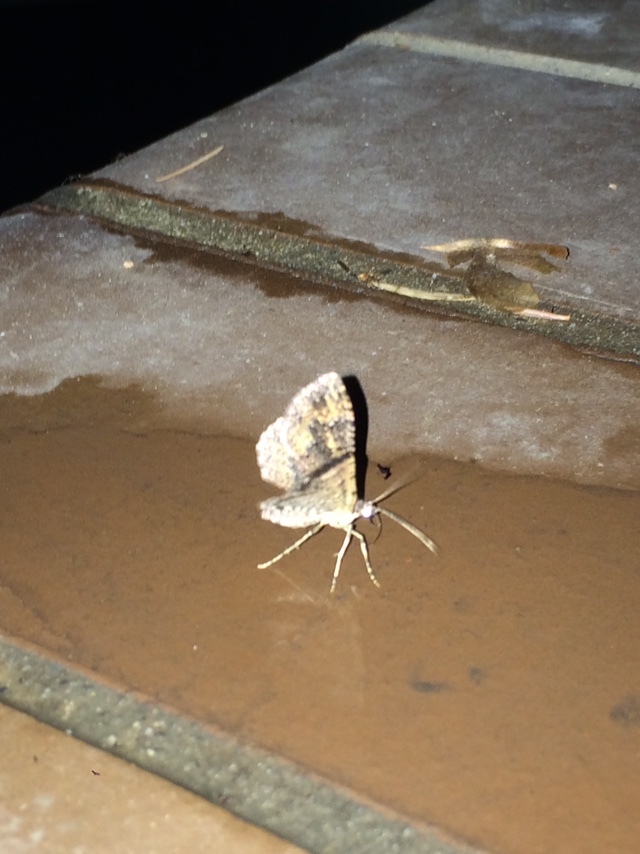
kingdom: Animalia
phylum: Arthropoda
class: Insecta
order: Lepidoptera
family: Geometridae
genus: Disclisioprocta
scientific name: Disclisioprocta stellata
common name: Somber carpet
